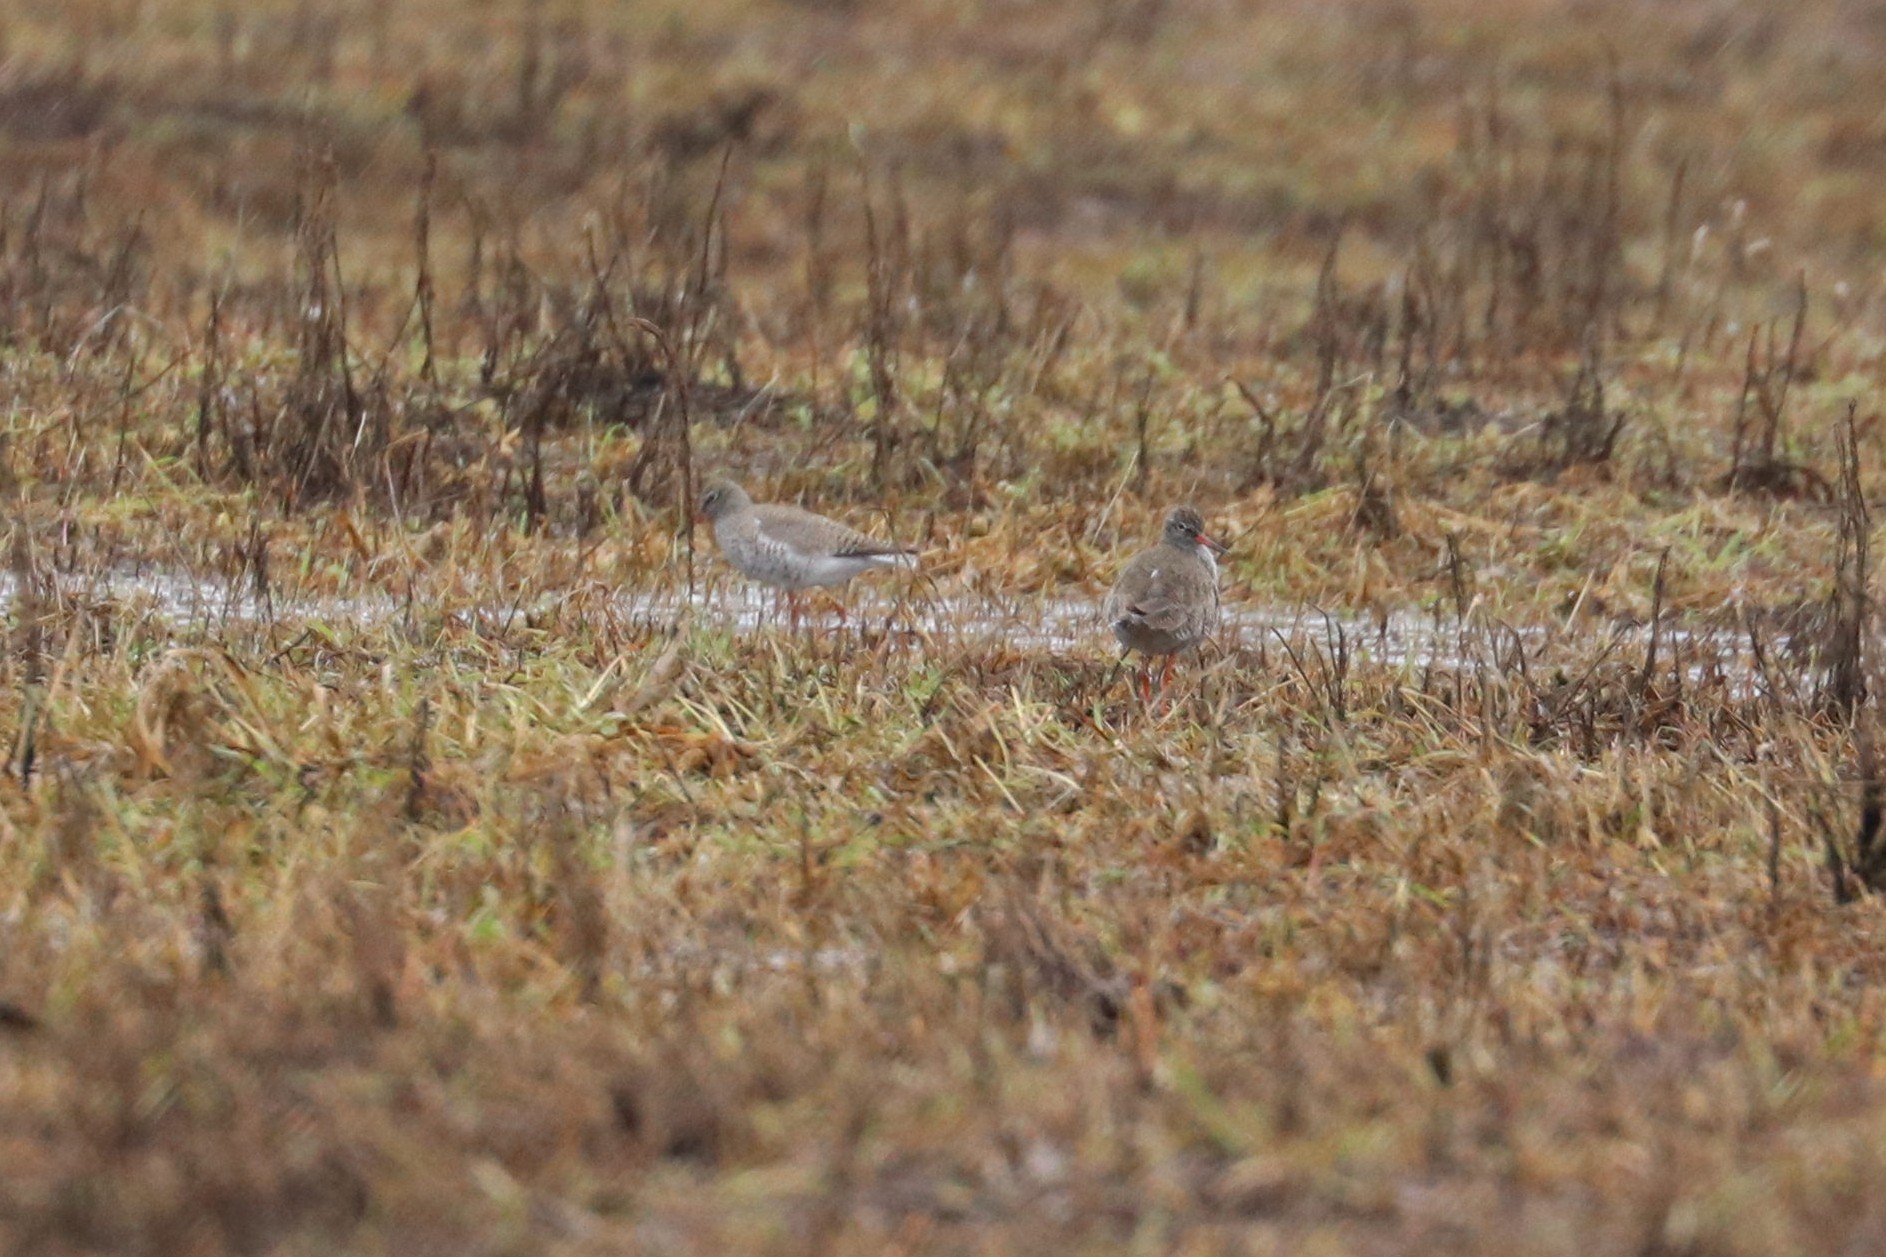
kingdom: Animalia
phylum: Chordata
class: Aves
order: Charadriiformes
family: Scolopacidae
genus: Tringa
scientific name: Tringa totanus
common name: Common redshank
